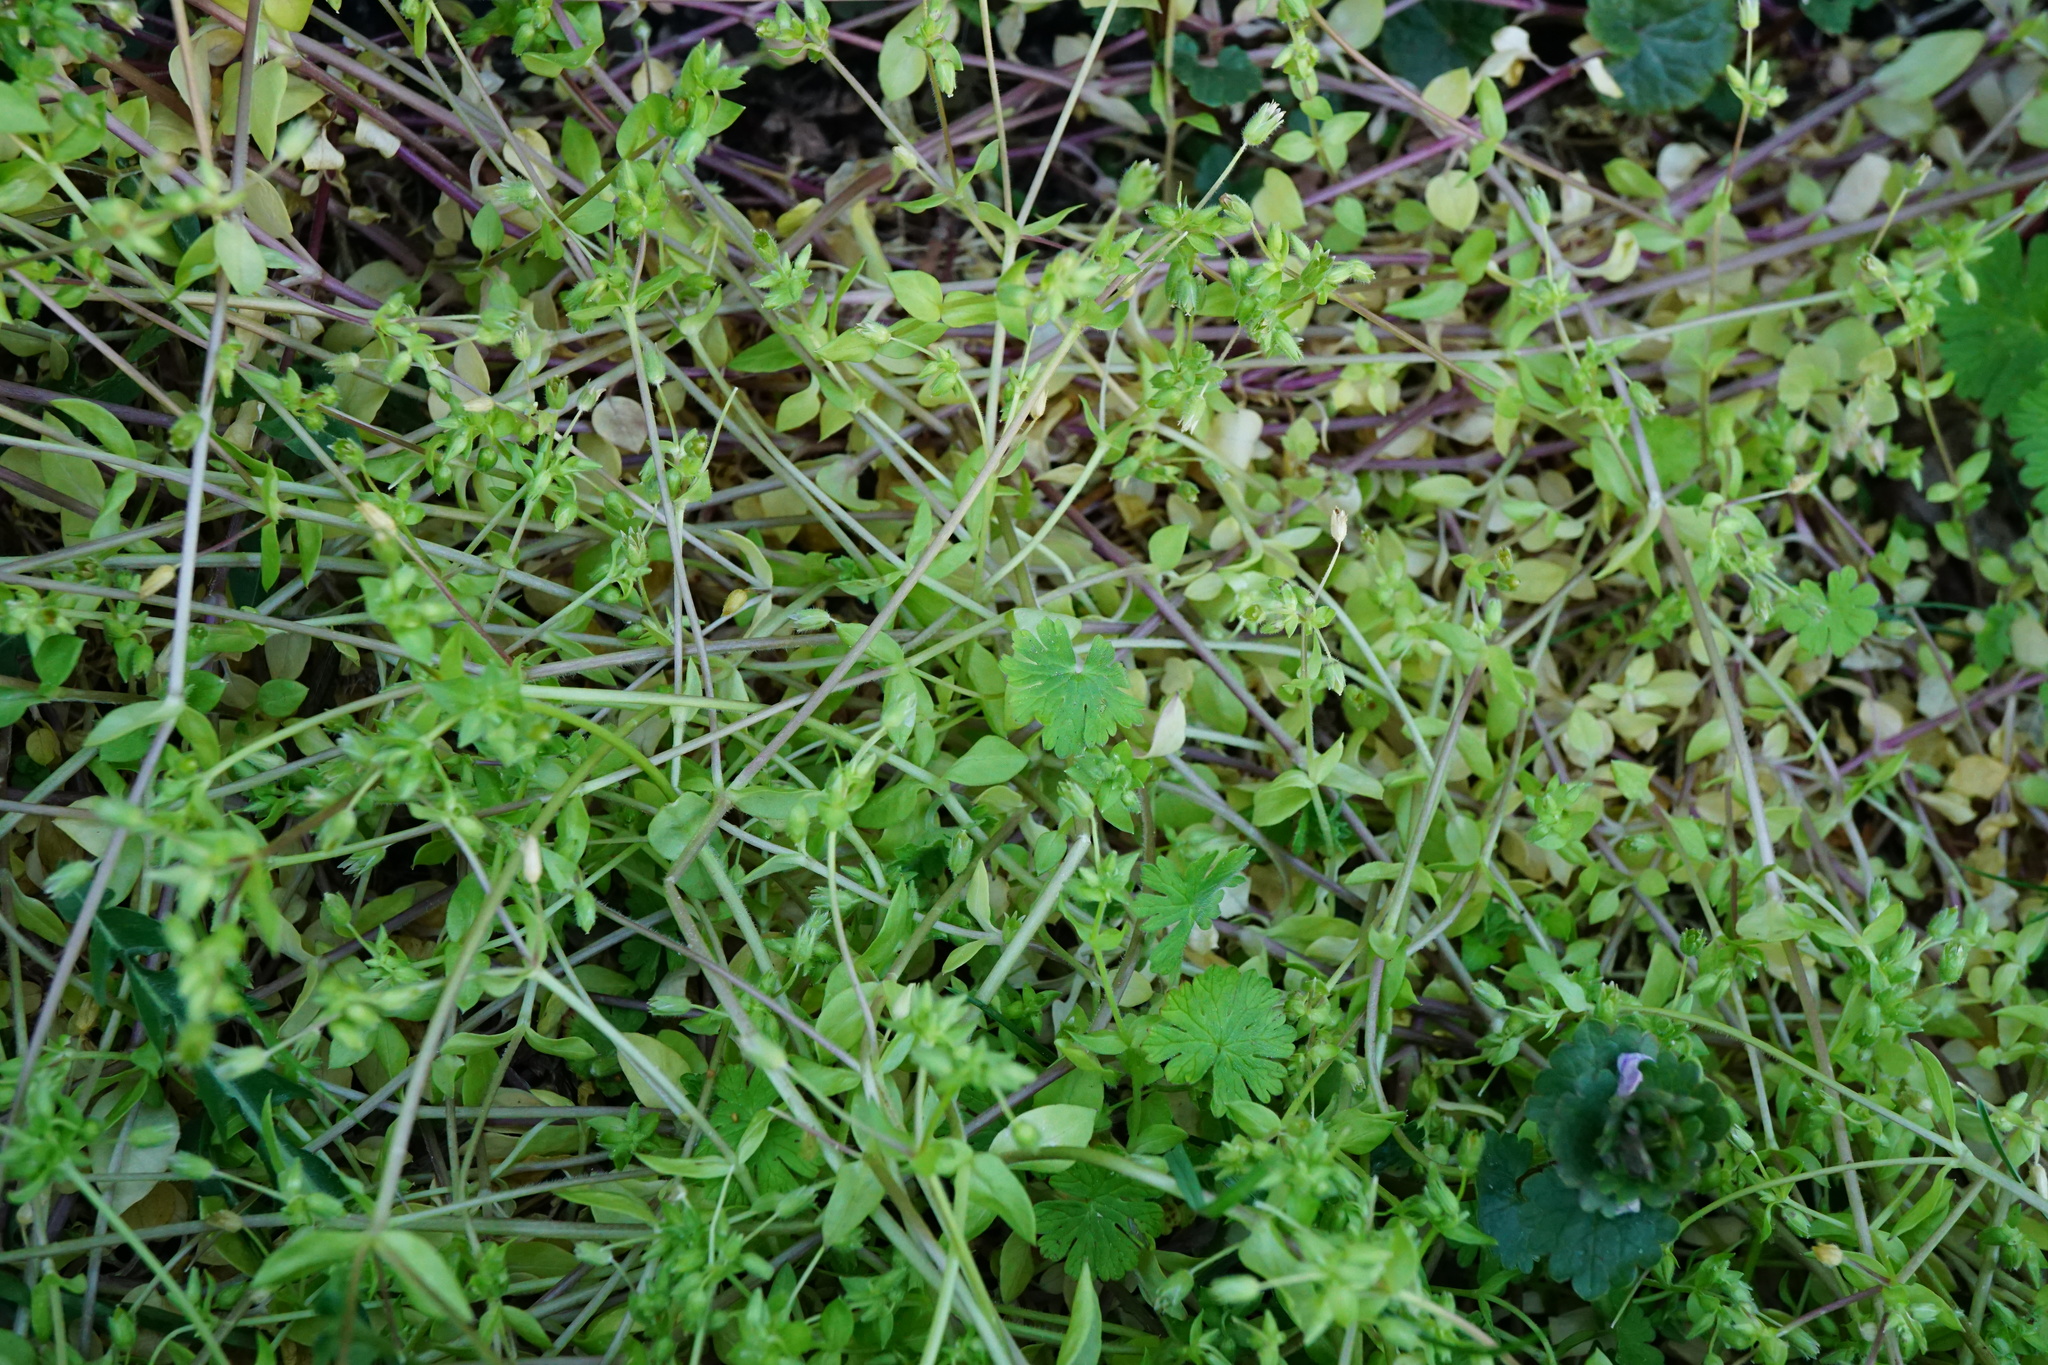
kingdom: Plantae
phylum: Tracheophyta
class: Magnoliopsida
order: Caryophyllales
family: Caryophyllaceae
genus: Stellaria
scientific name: Stellaria apetala
